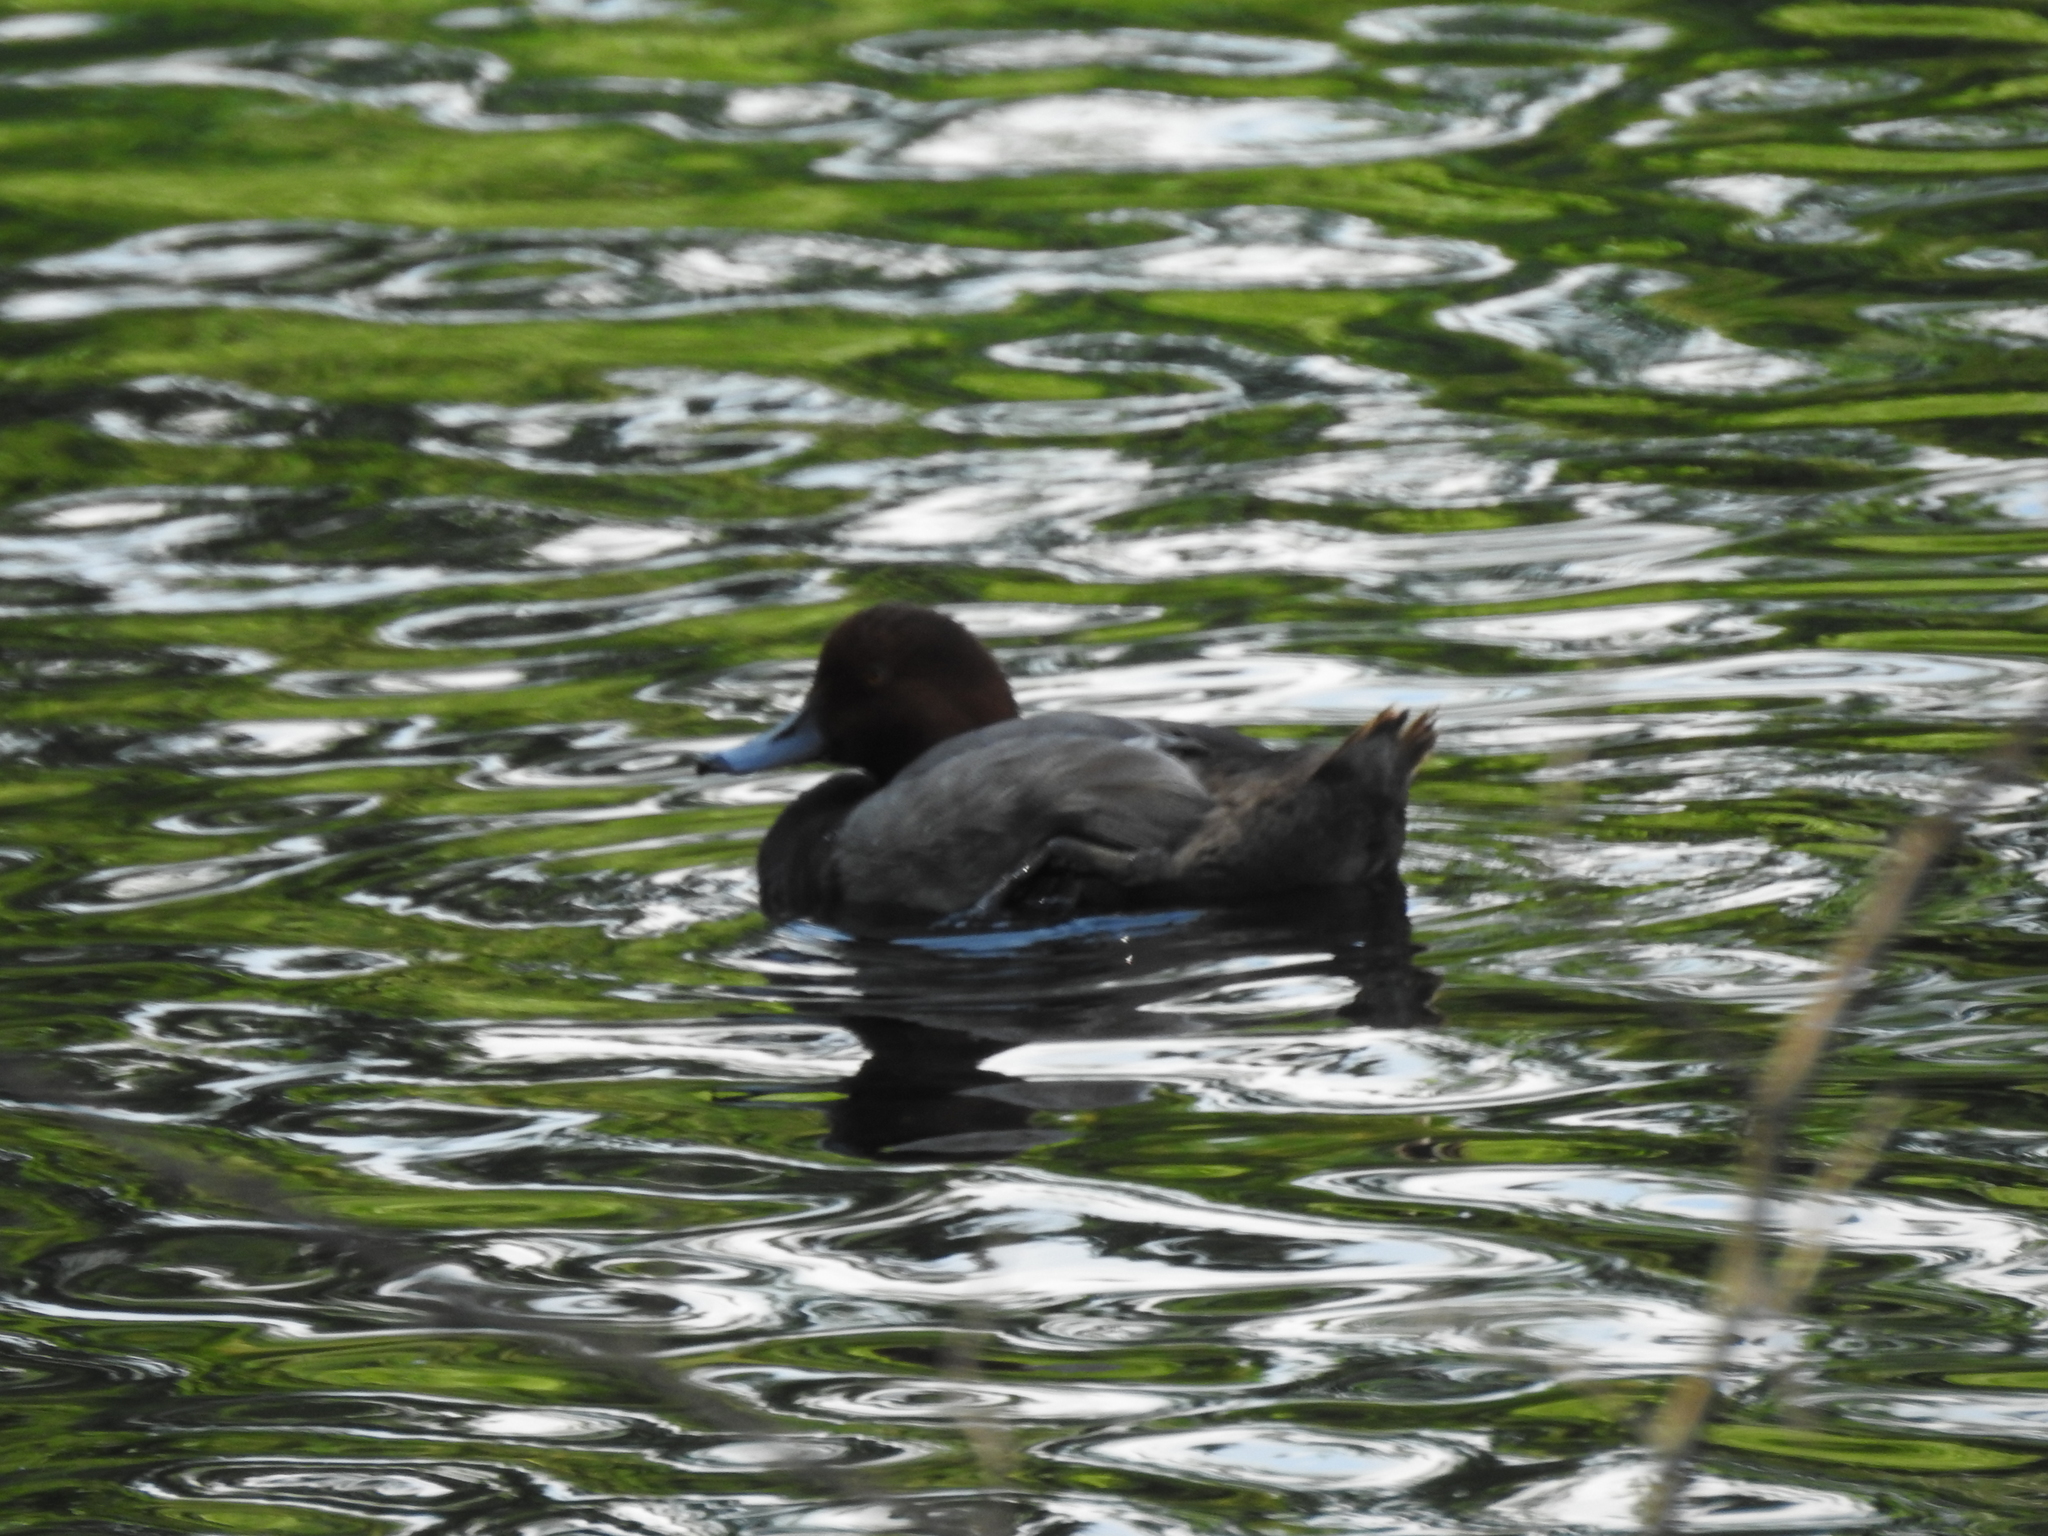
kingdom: Animalia
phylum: Chordata
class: Aves
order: Anseriformes
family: Anatidae
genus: Aythya
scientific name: Aythya americana
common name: Redhead
